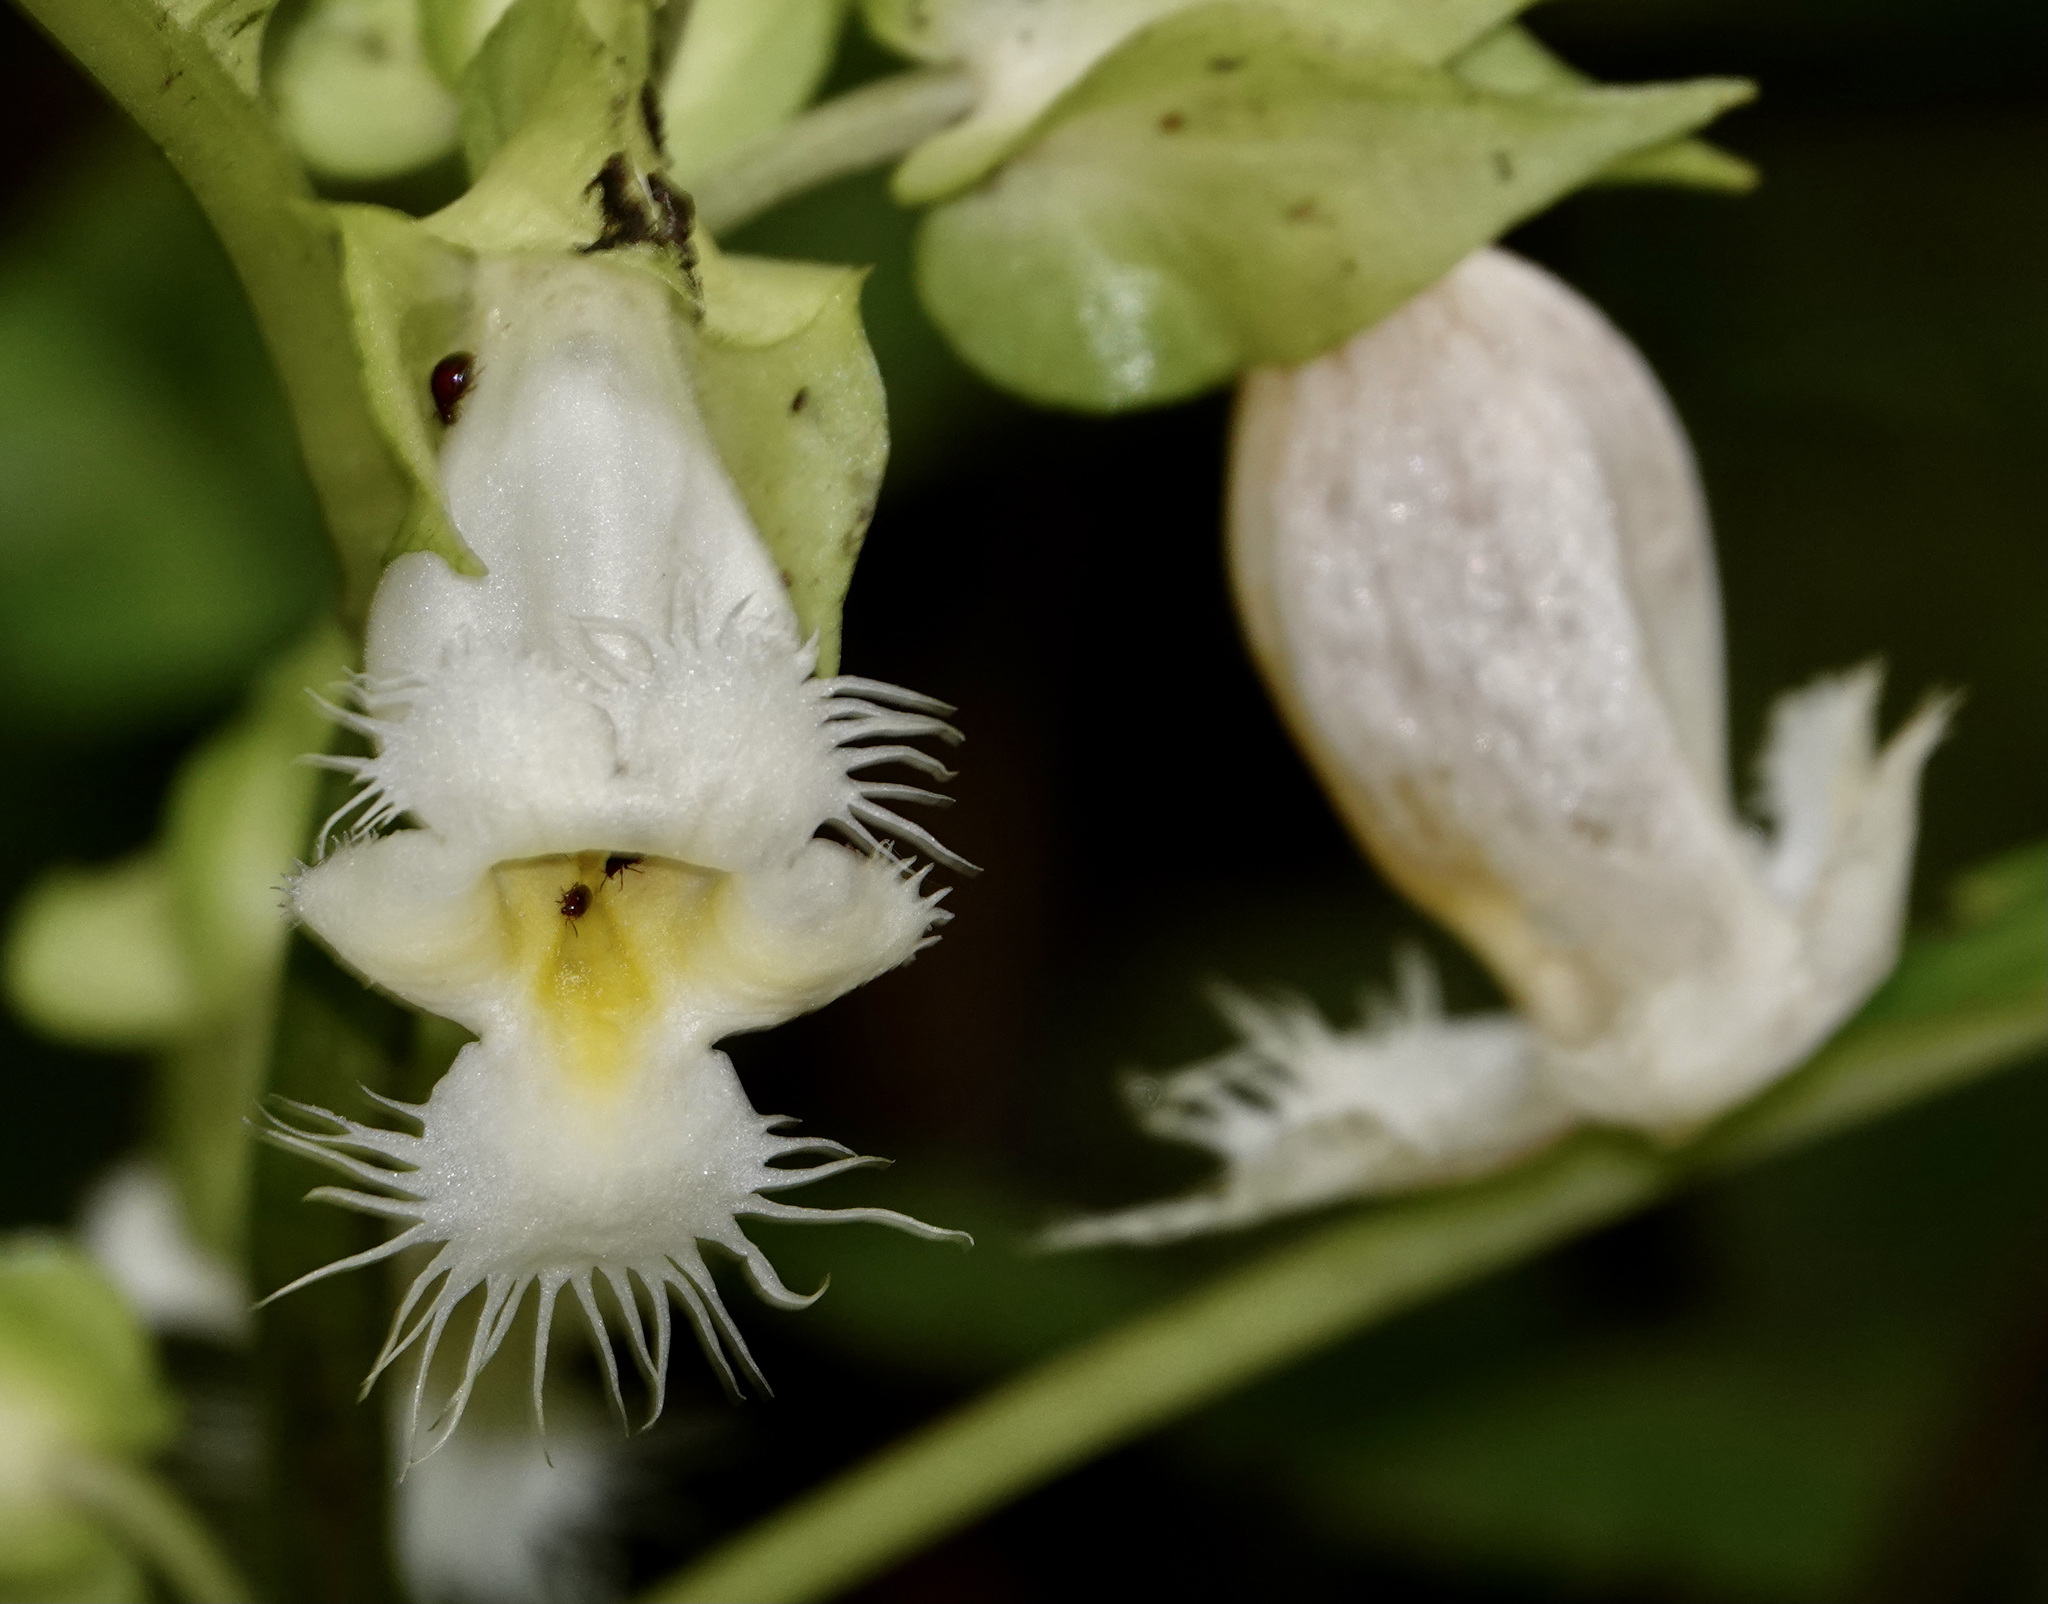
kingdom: Plantae
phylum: Tracheophyta
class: Magnoliopsida
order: Lamiales
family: Gesneriaceae
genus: Drymonia
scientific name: Drymonia lanceolata
